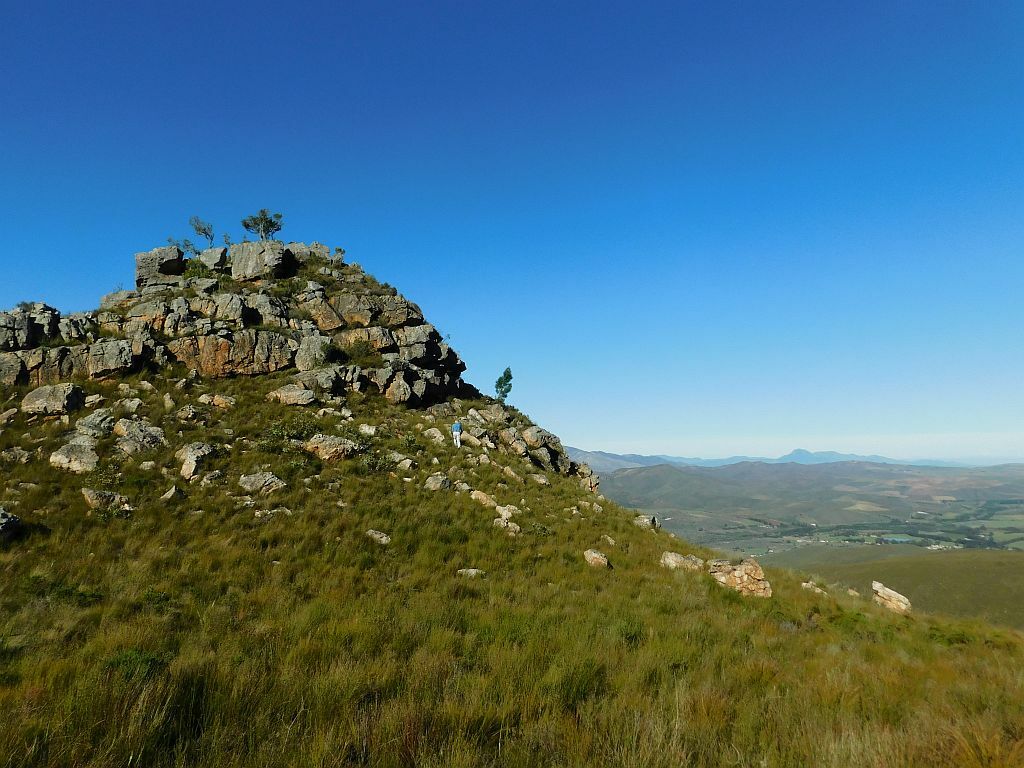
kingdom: Plantae
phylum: Tracheophyta
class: Pinopsida
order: Pinales
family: Pinaceae
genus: Pinus
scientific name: Pinus pinaster
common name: Maritime pine
